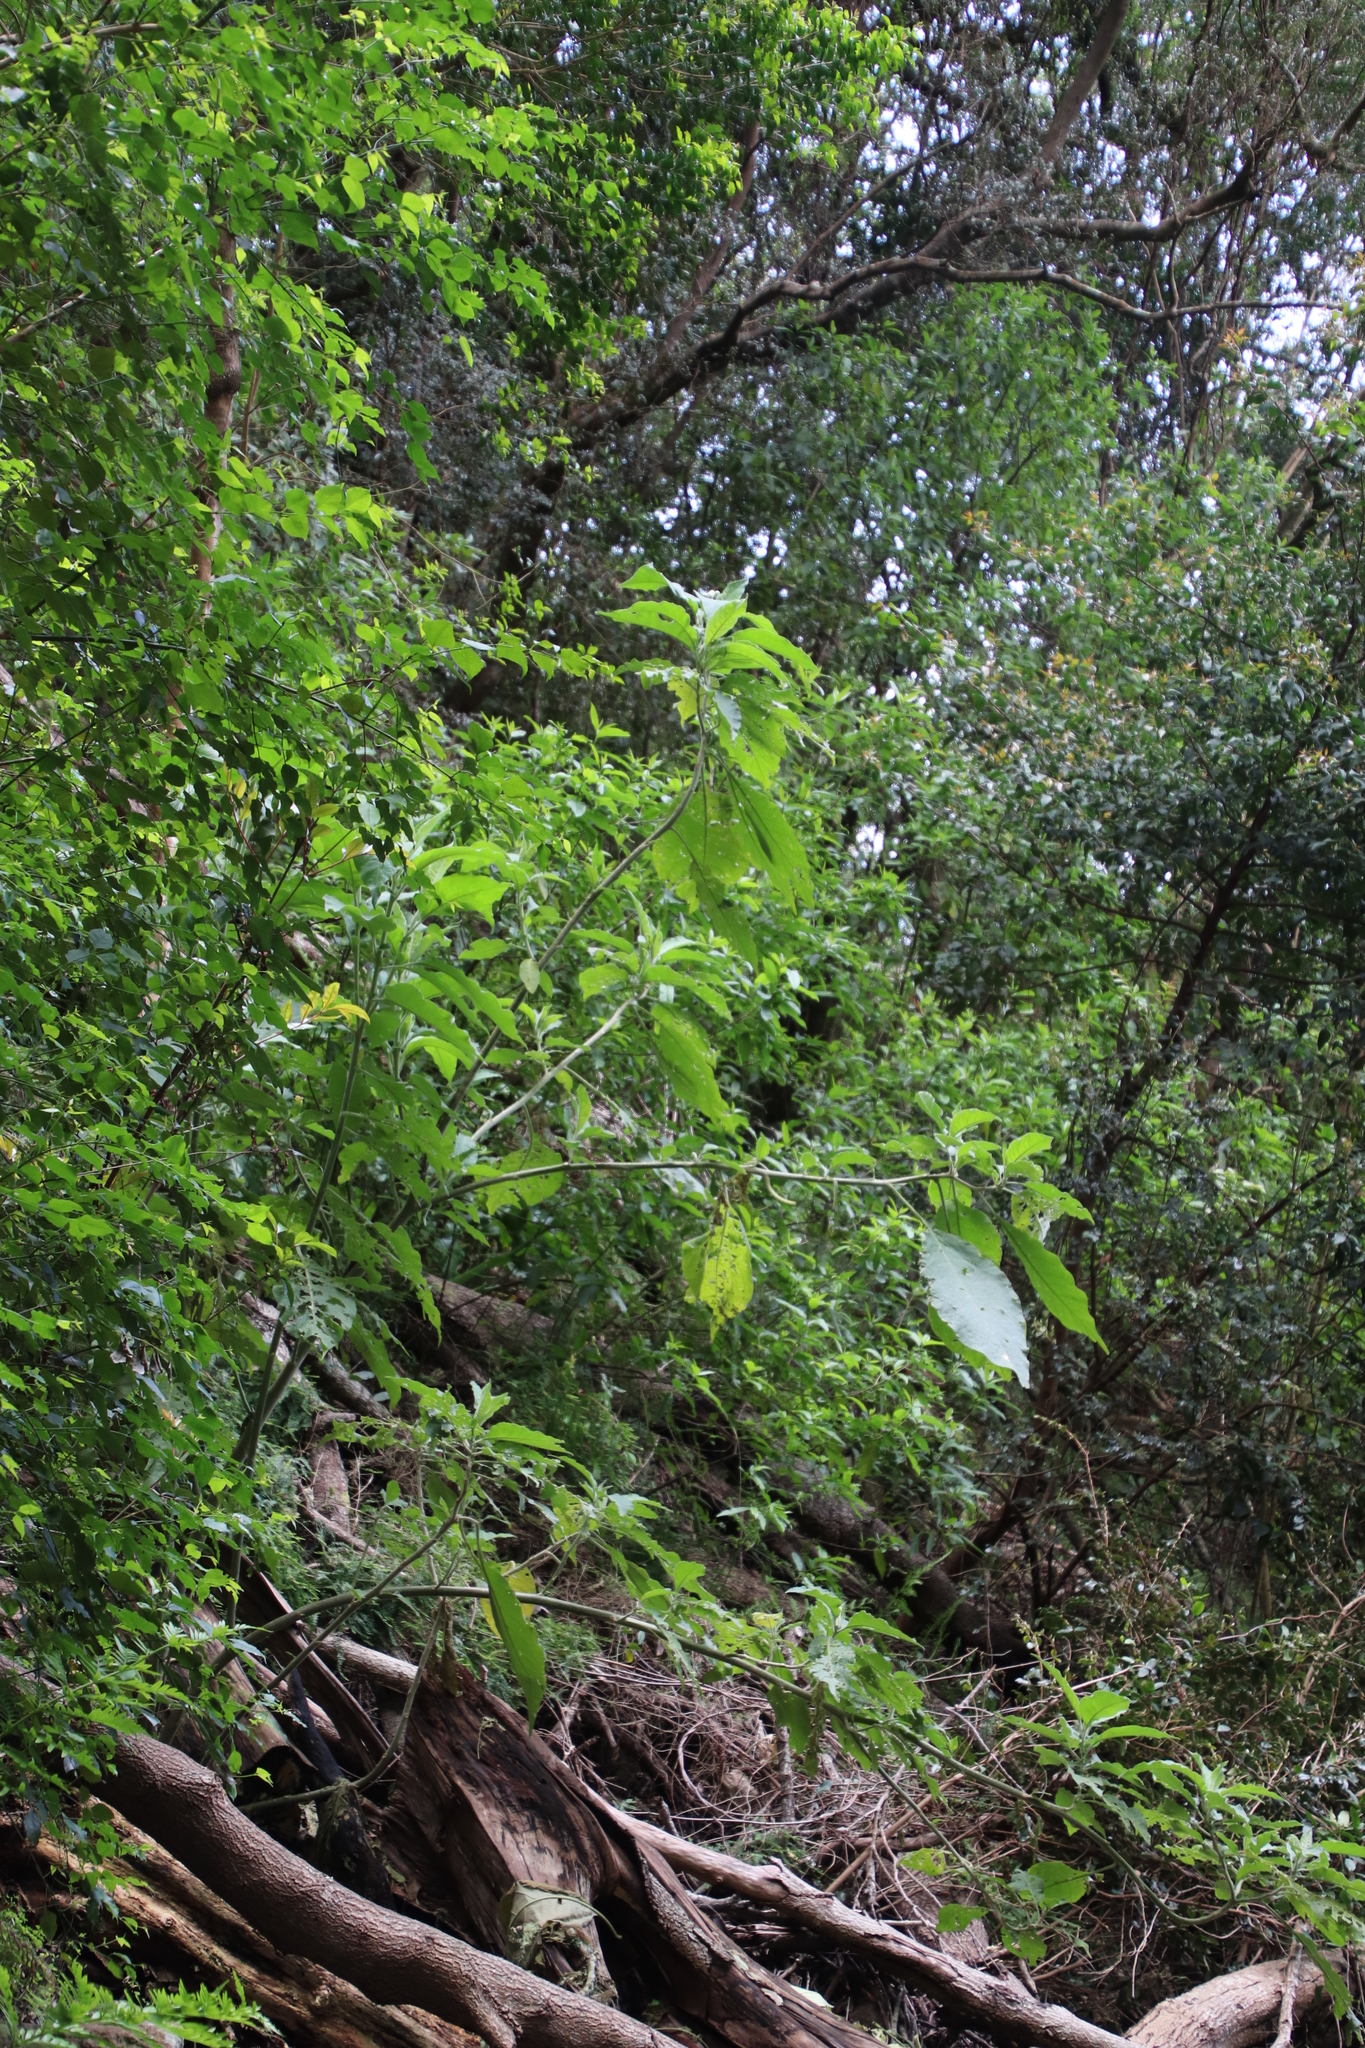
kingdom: Plantae
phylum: Tracheophyta
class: Magnoliopsida
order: Solanales
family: Solanaceae
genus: Solanum
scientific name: Solanum mauritianum
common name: Earleaf nightshade
